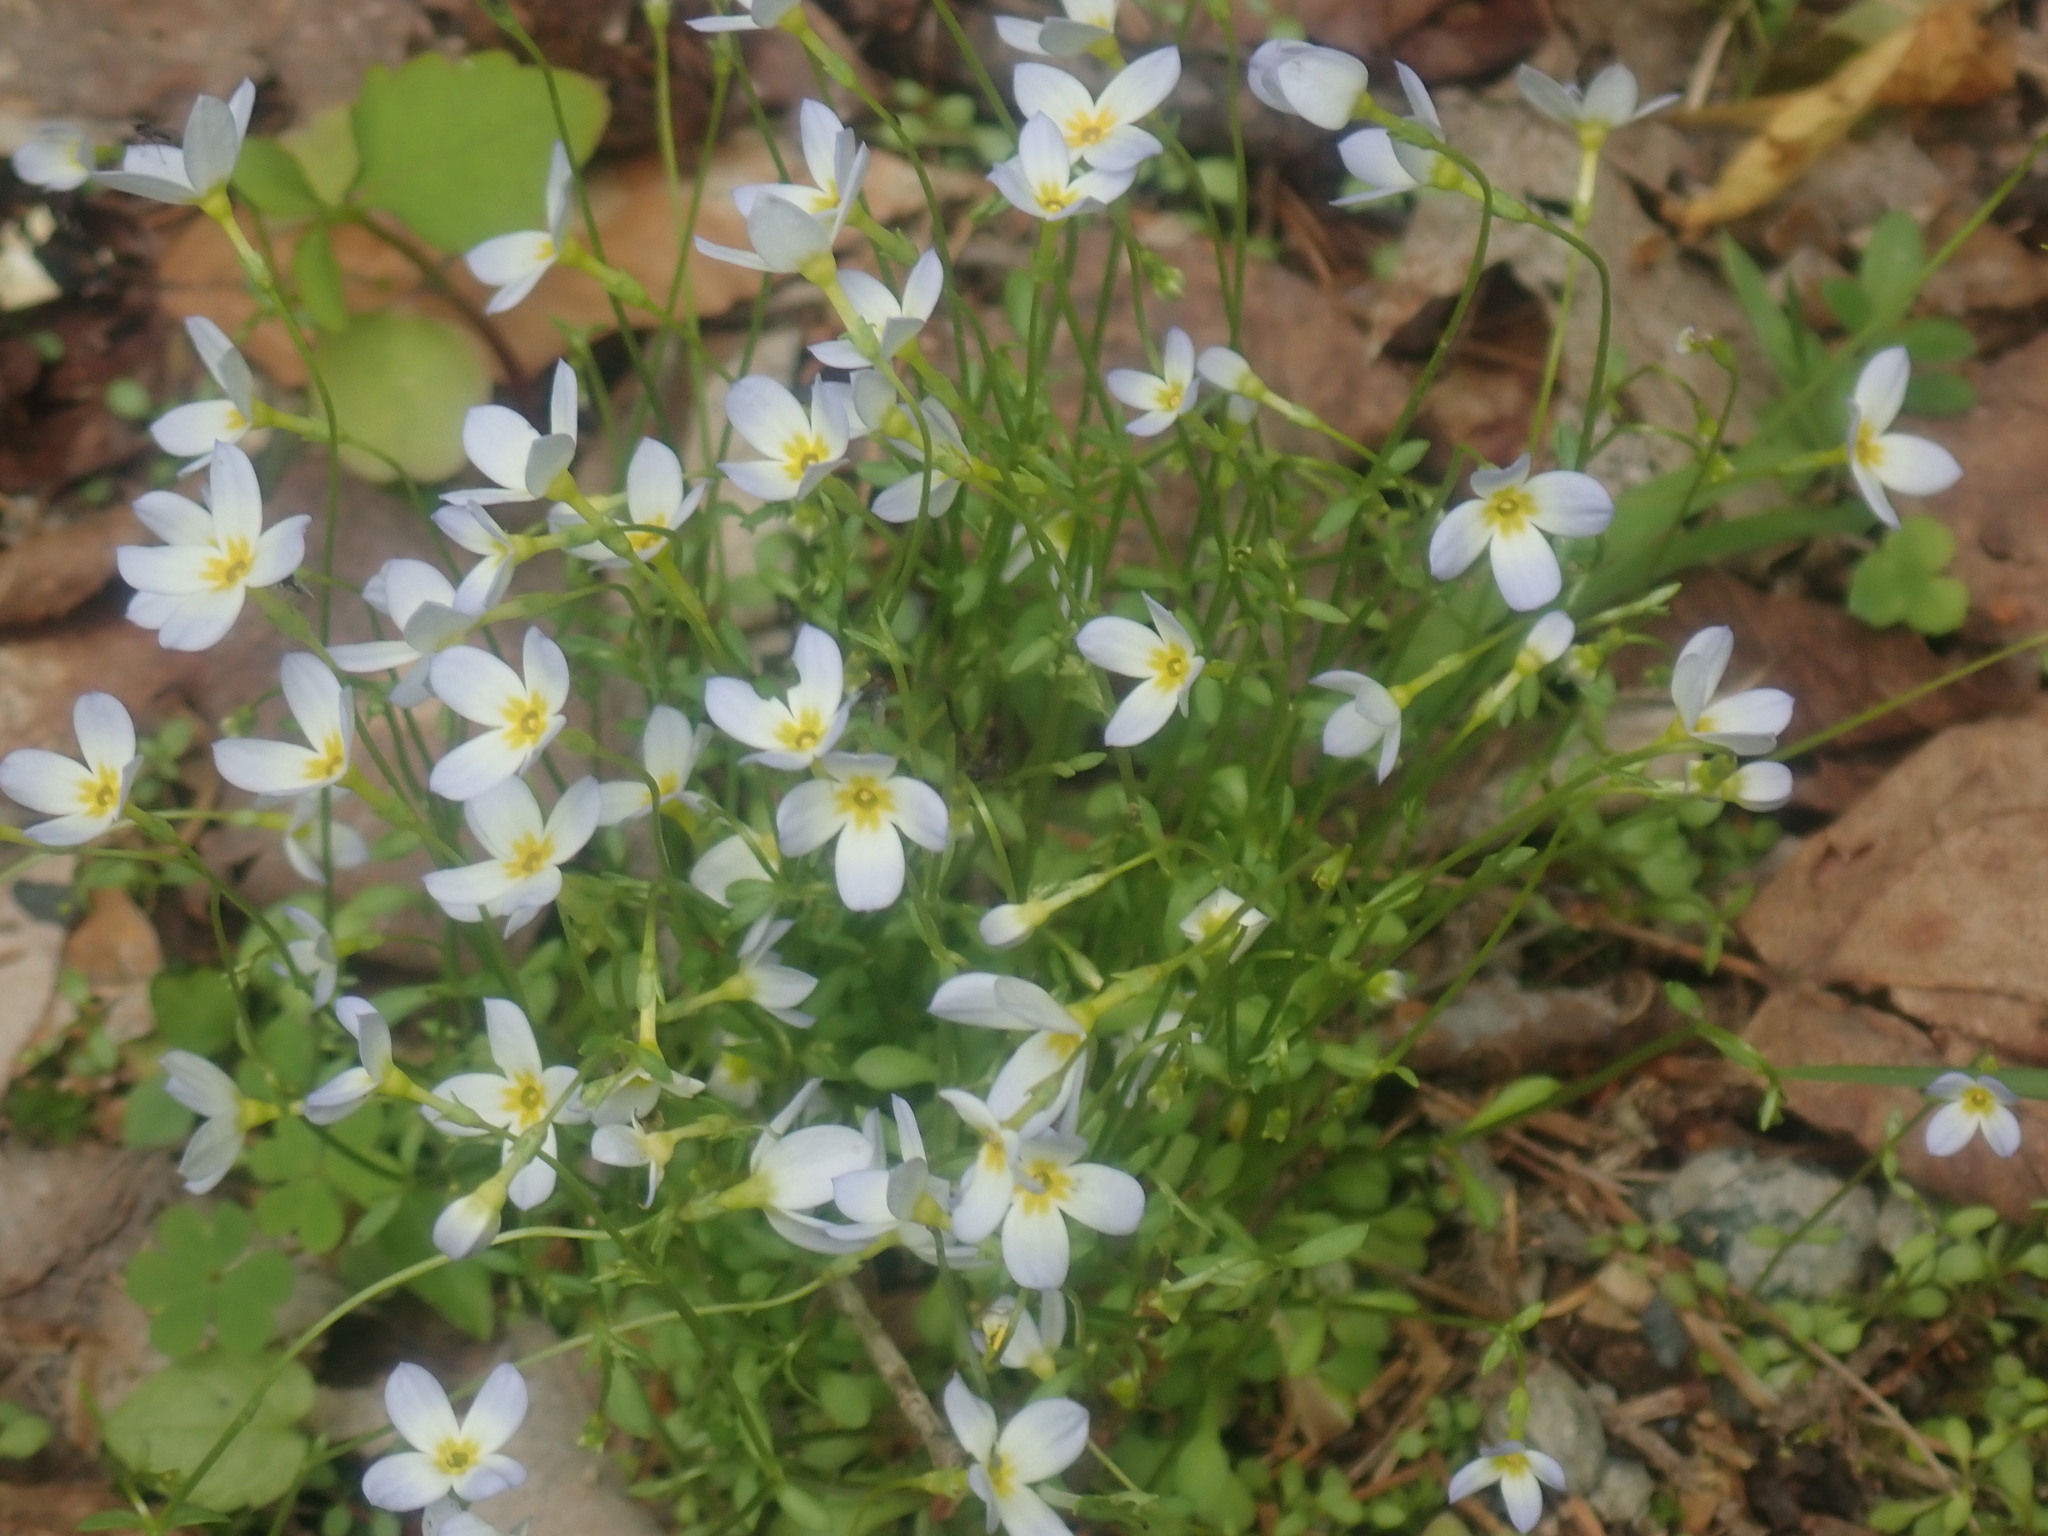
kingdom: Plantae
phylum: Tracheophyta
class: Magnoliopsida
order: Gentianales
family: Rubiaceae
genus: Houstonia
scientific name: Houstonia caerulea
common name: Bluets
